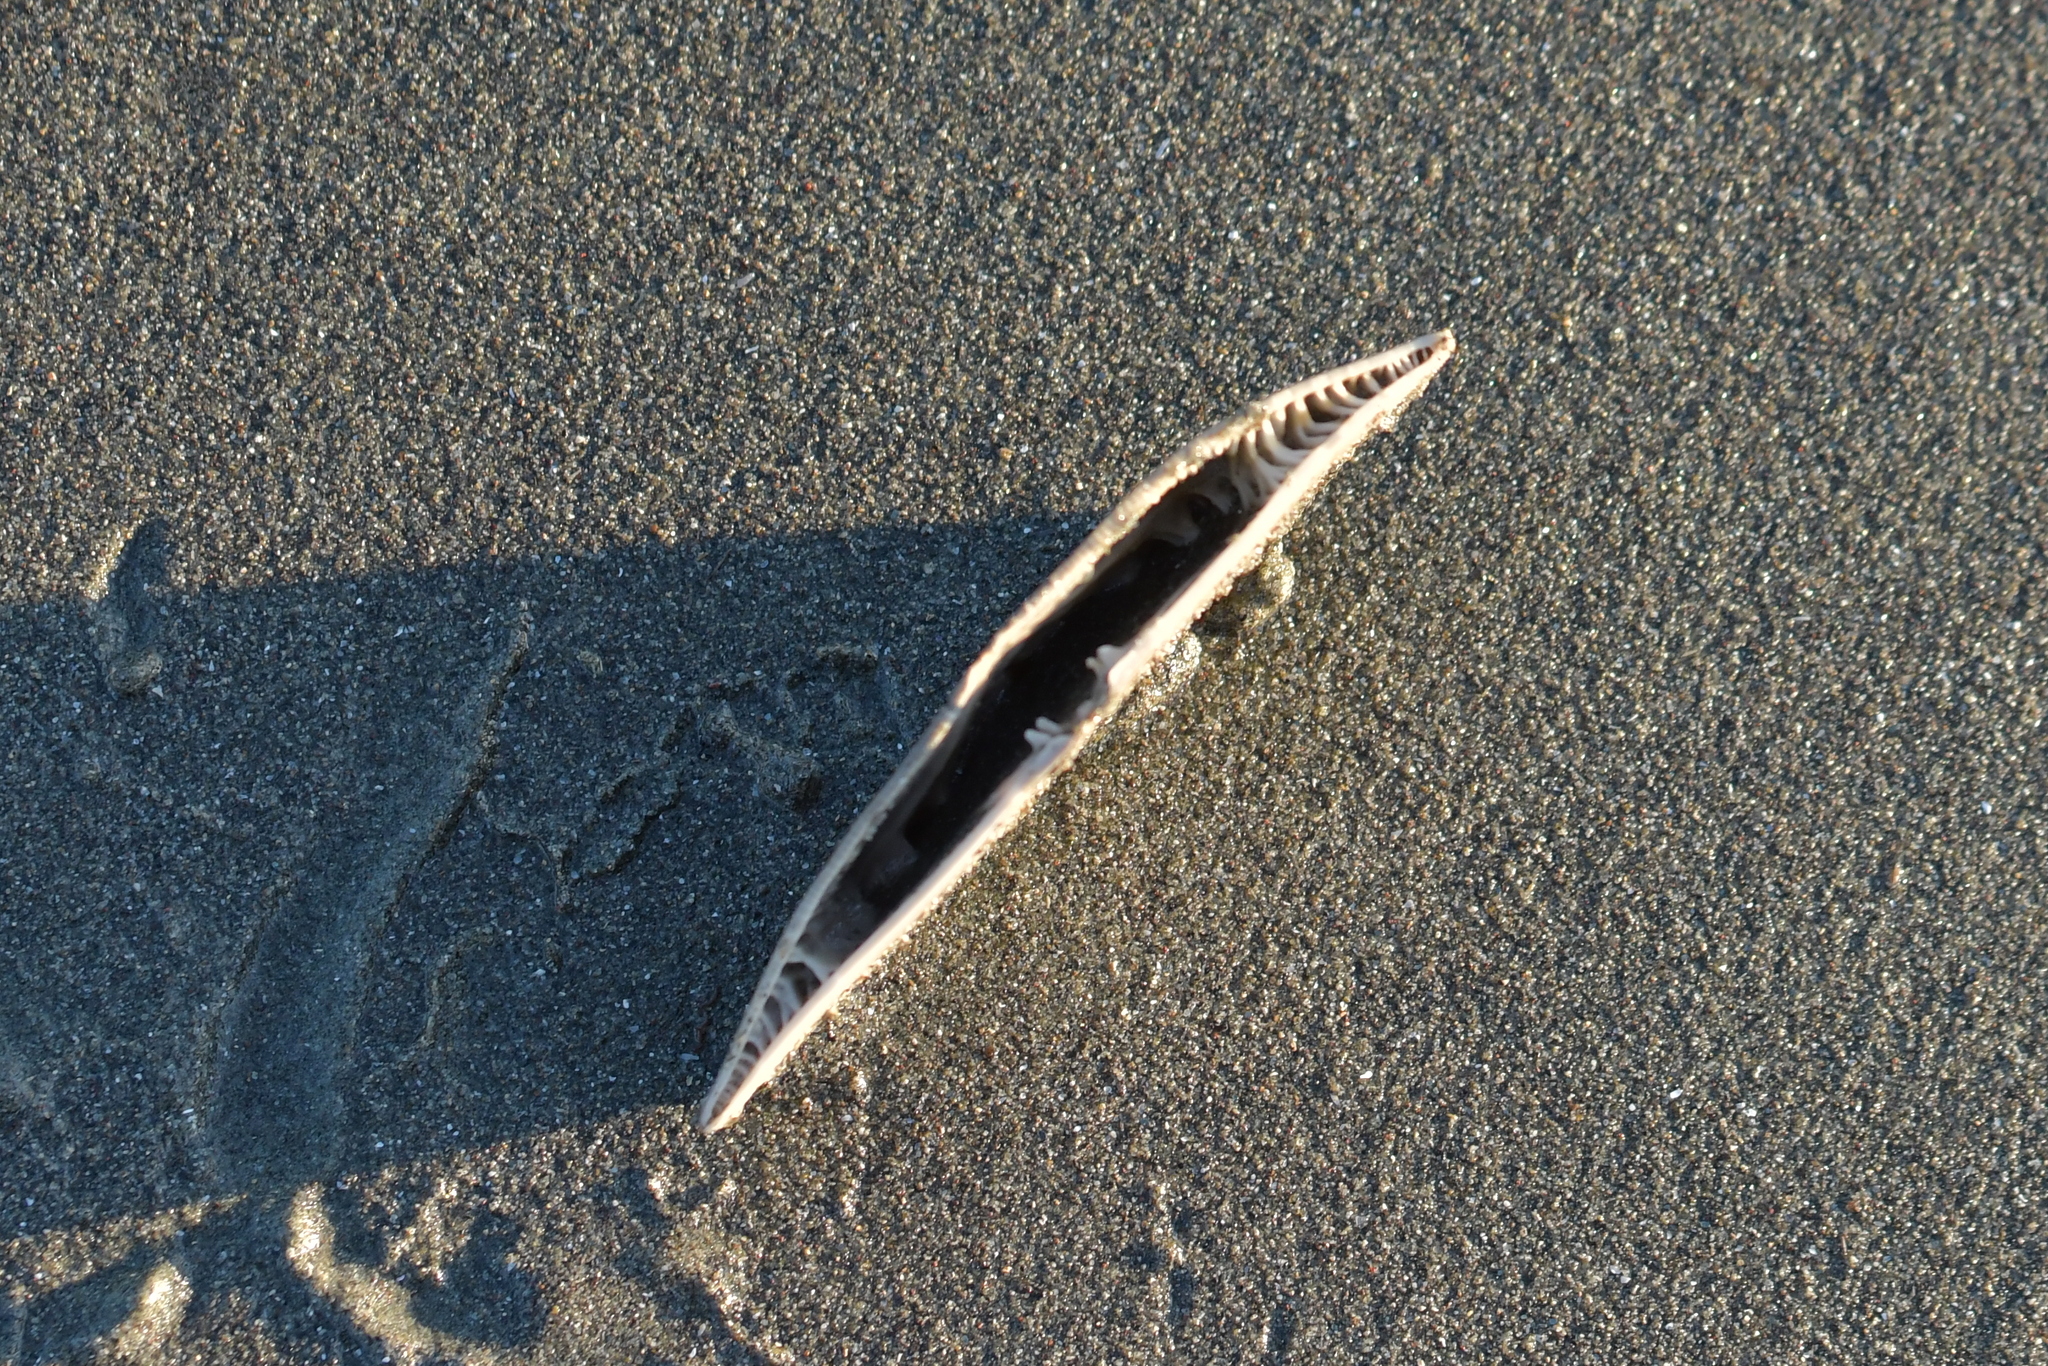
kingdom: Animalia
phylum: Echinodermata
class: Echinoidea
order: Clypeasteroida
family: Clypeasteridae
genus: Fellaster
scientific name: Fellaster zelandiae
